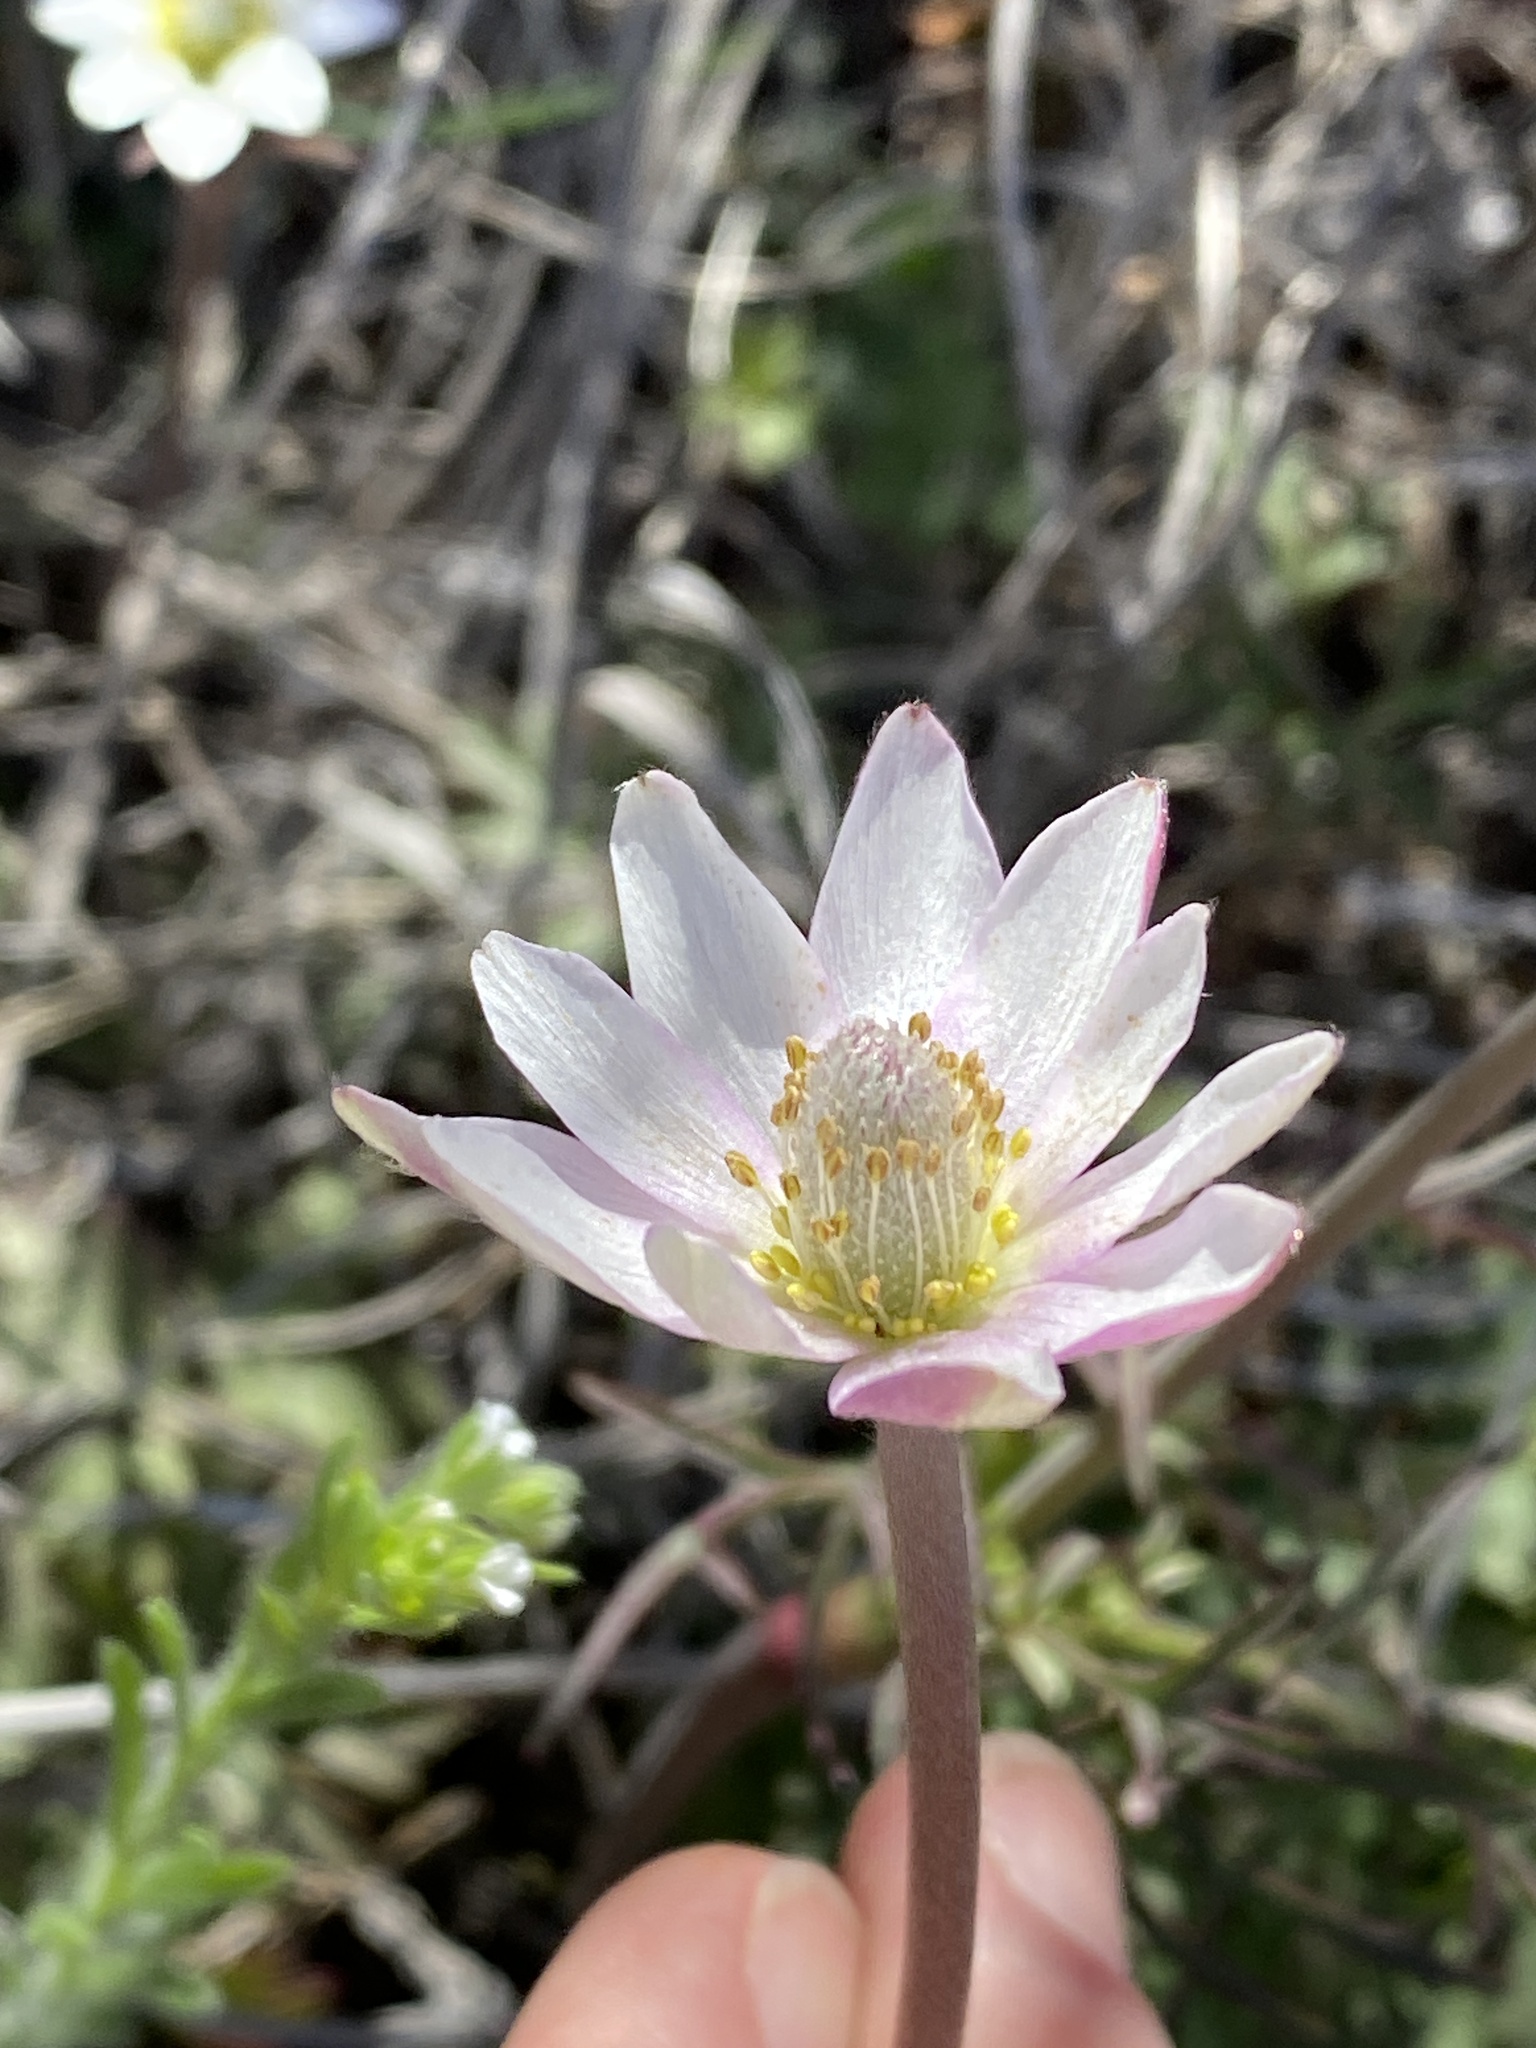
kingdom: Plantae
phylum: Tracheophyta
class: Magnoliopsida
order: Ranunculales
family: Ranunculaceae
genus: Anemone
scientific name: Anemone tuberosa
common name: Desert anemone
